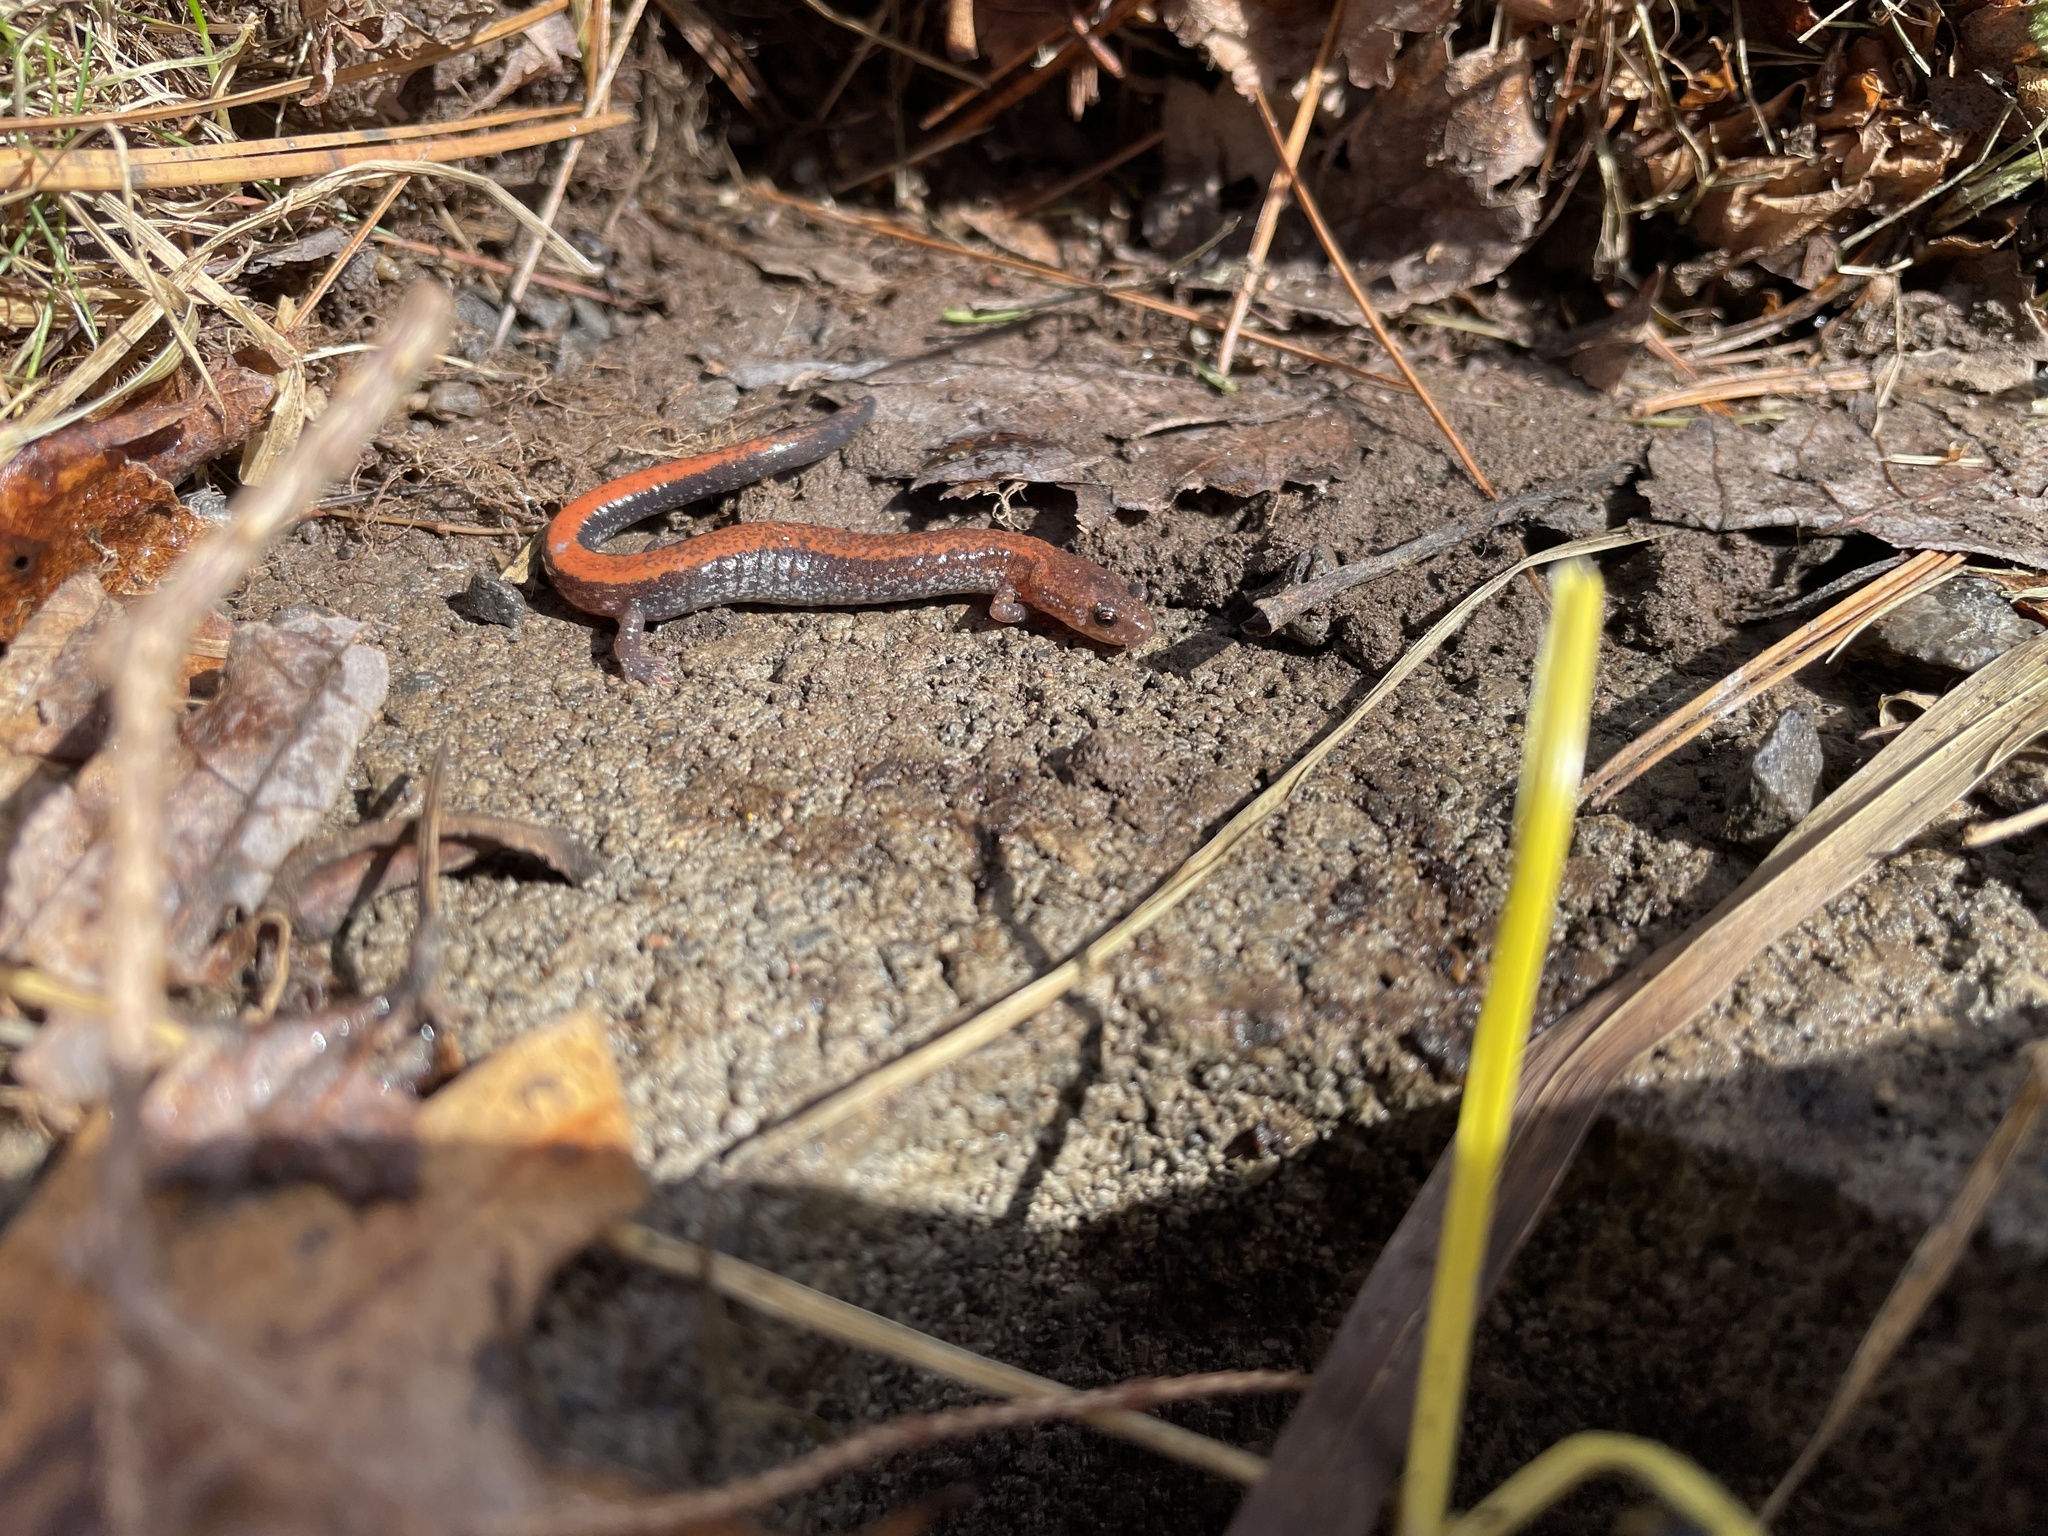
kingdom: Animalia
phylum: Chordata
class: Amphibia
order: Caudata
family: Plethodontidae
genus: Plethodon
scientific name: Plethodon cinereus
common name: Redback salamander
